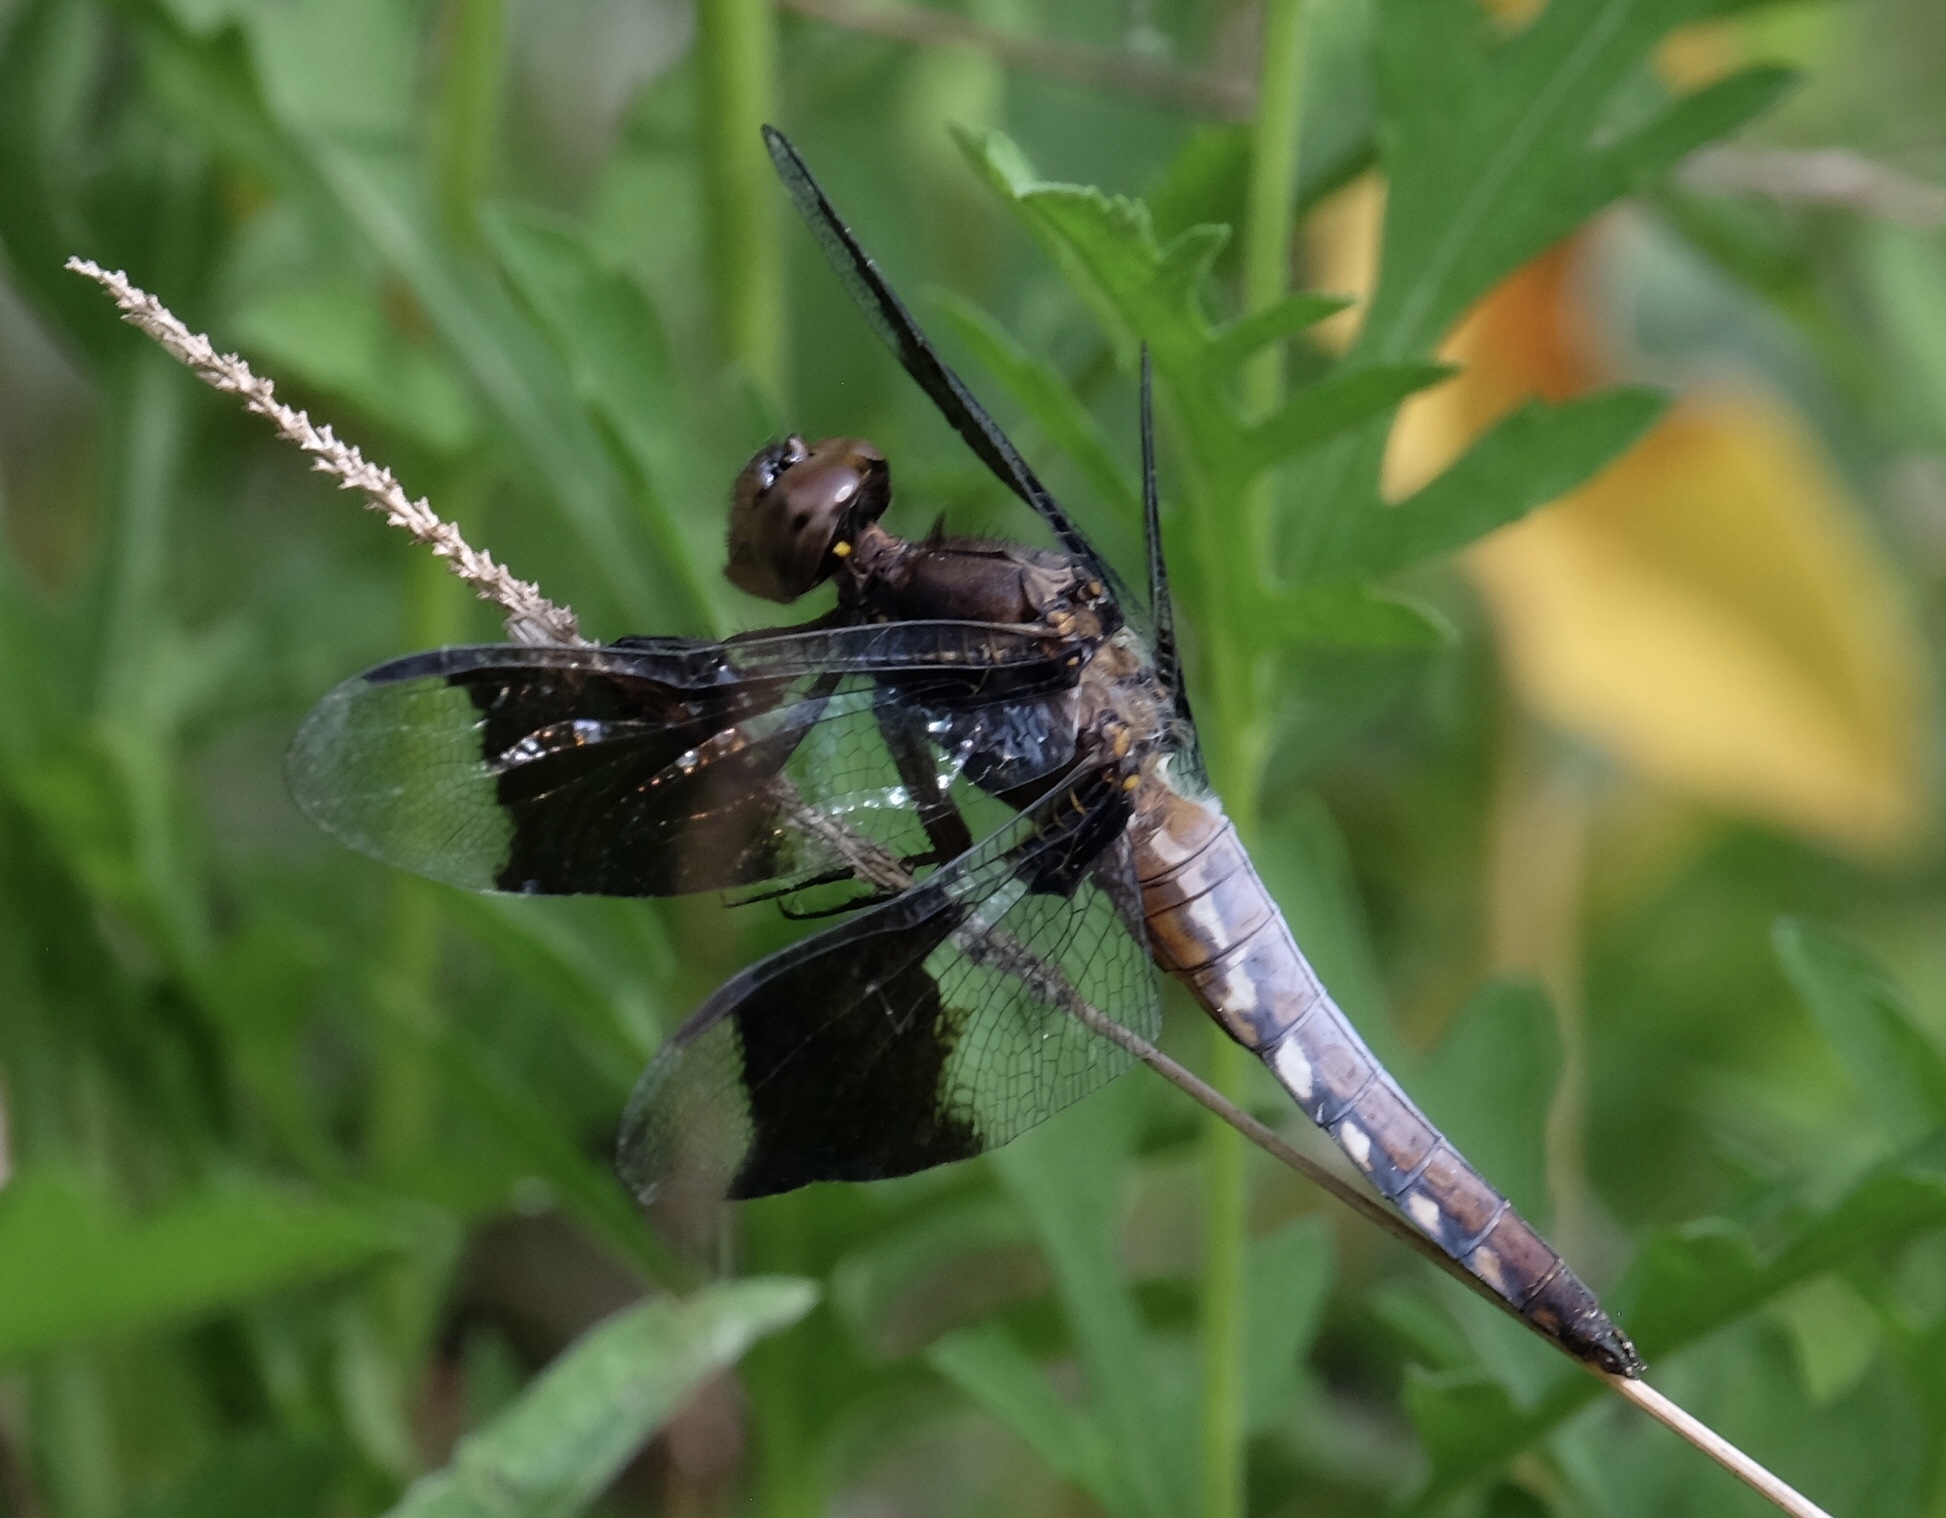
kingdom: Animalia
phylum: Arthropoda
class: Insecta
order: Odonata
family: Libellulidae
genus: Plathemis
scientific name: Plathemis lydia
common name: Common whitetail
